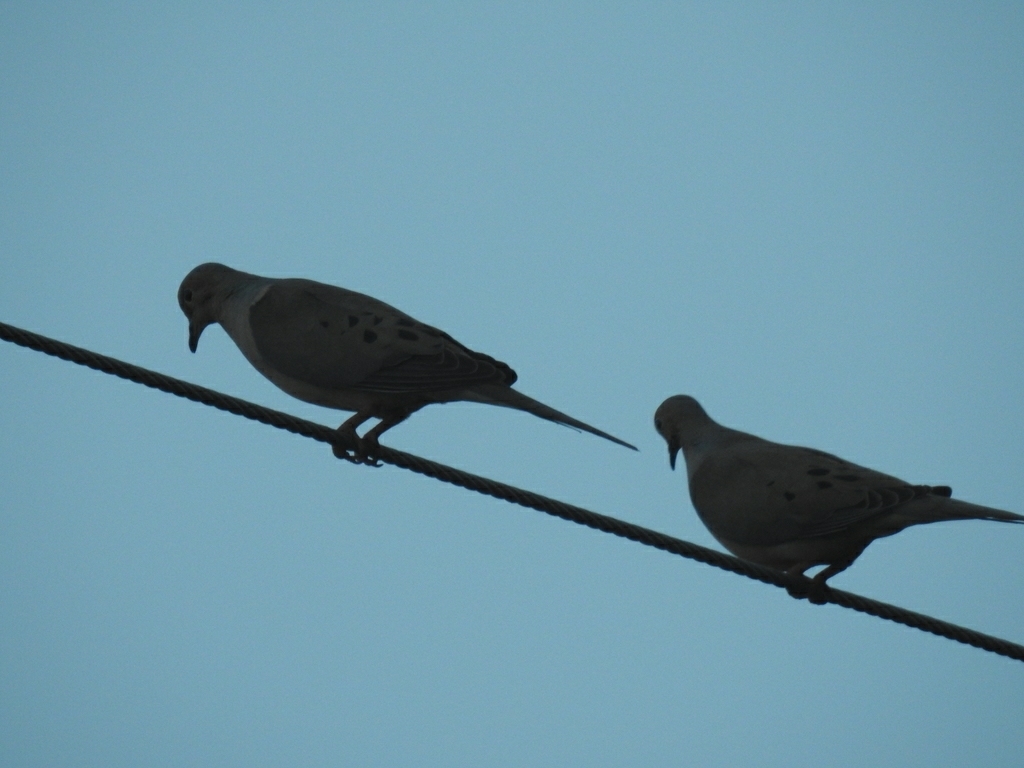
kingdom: Animalia
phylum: Chordata
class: Aves
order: Columbiformes
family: Columbidae
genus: Zenaida
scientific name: Zenaida macroura
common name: Mourning dove
